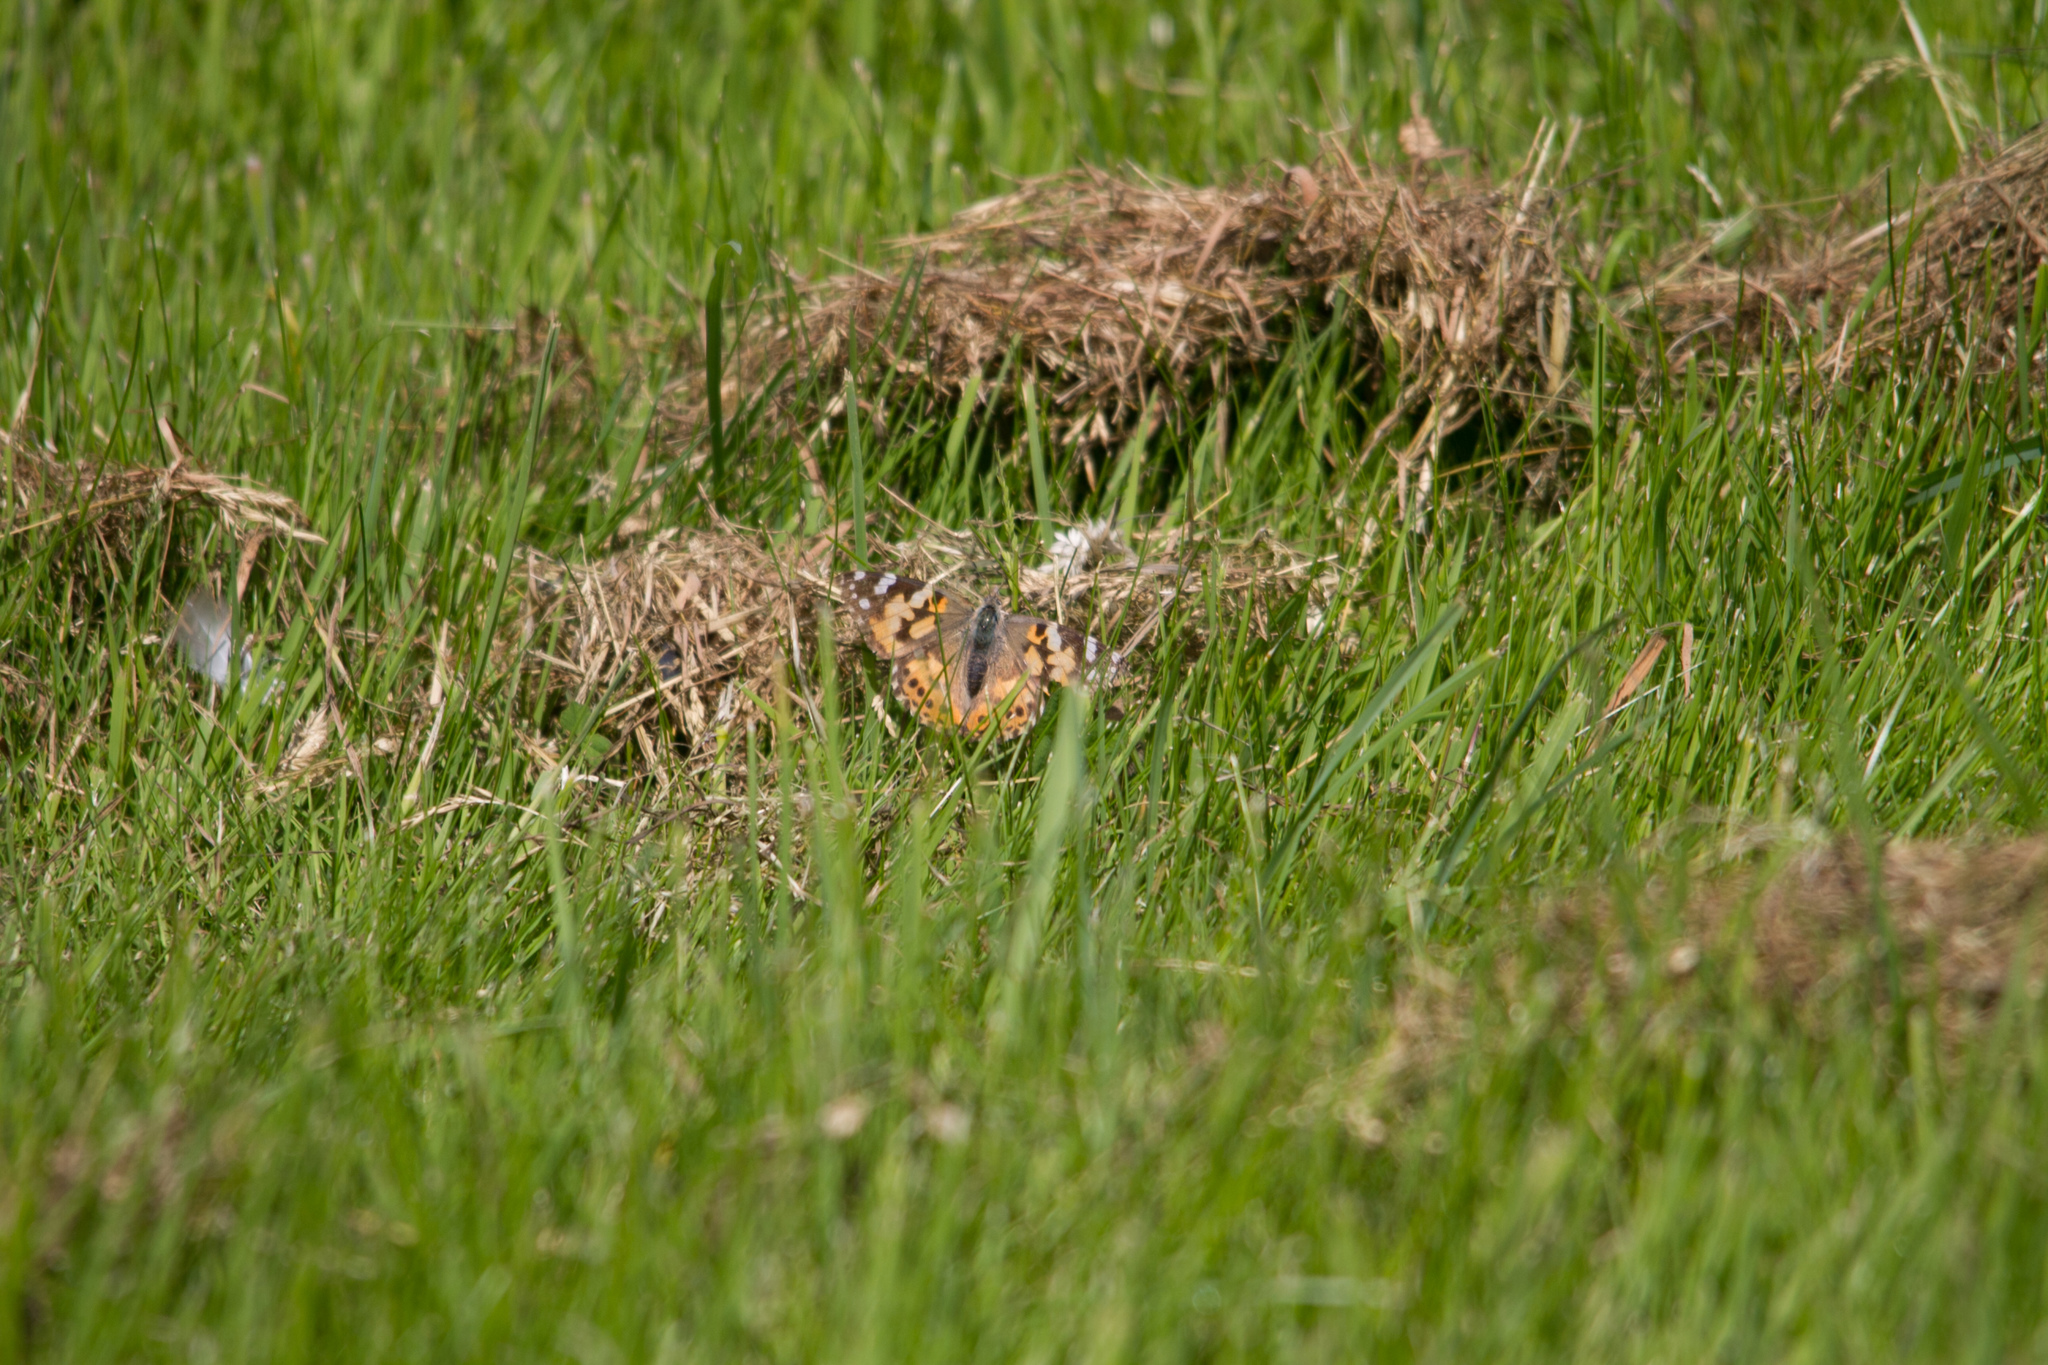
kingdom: Animalia
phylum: Arthropoda
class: Insecta
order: Lepidoptera
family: Nymphalidae
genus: Vanessa
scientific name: Vanessa cardui
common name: Painted lady
